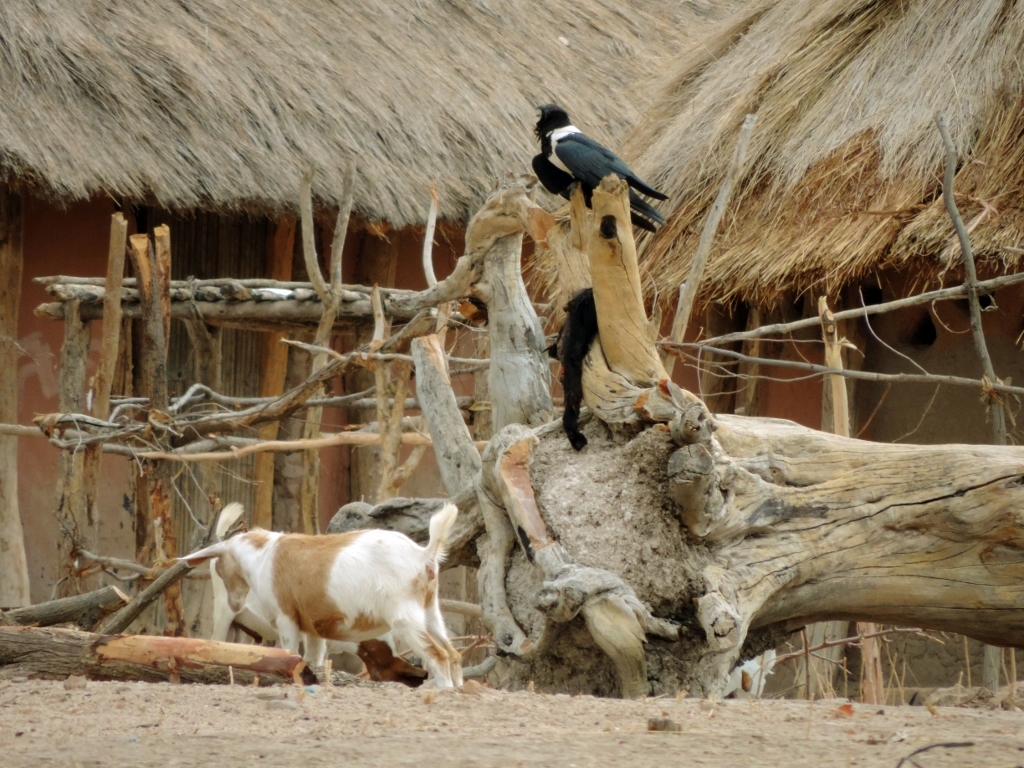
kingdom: Animalia
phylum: Chordata
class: Aves
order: Passeriformes
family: Corvidae
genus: Corvus
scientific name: Corvus albus
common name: Pied crow
